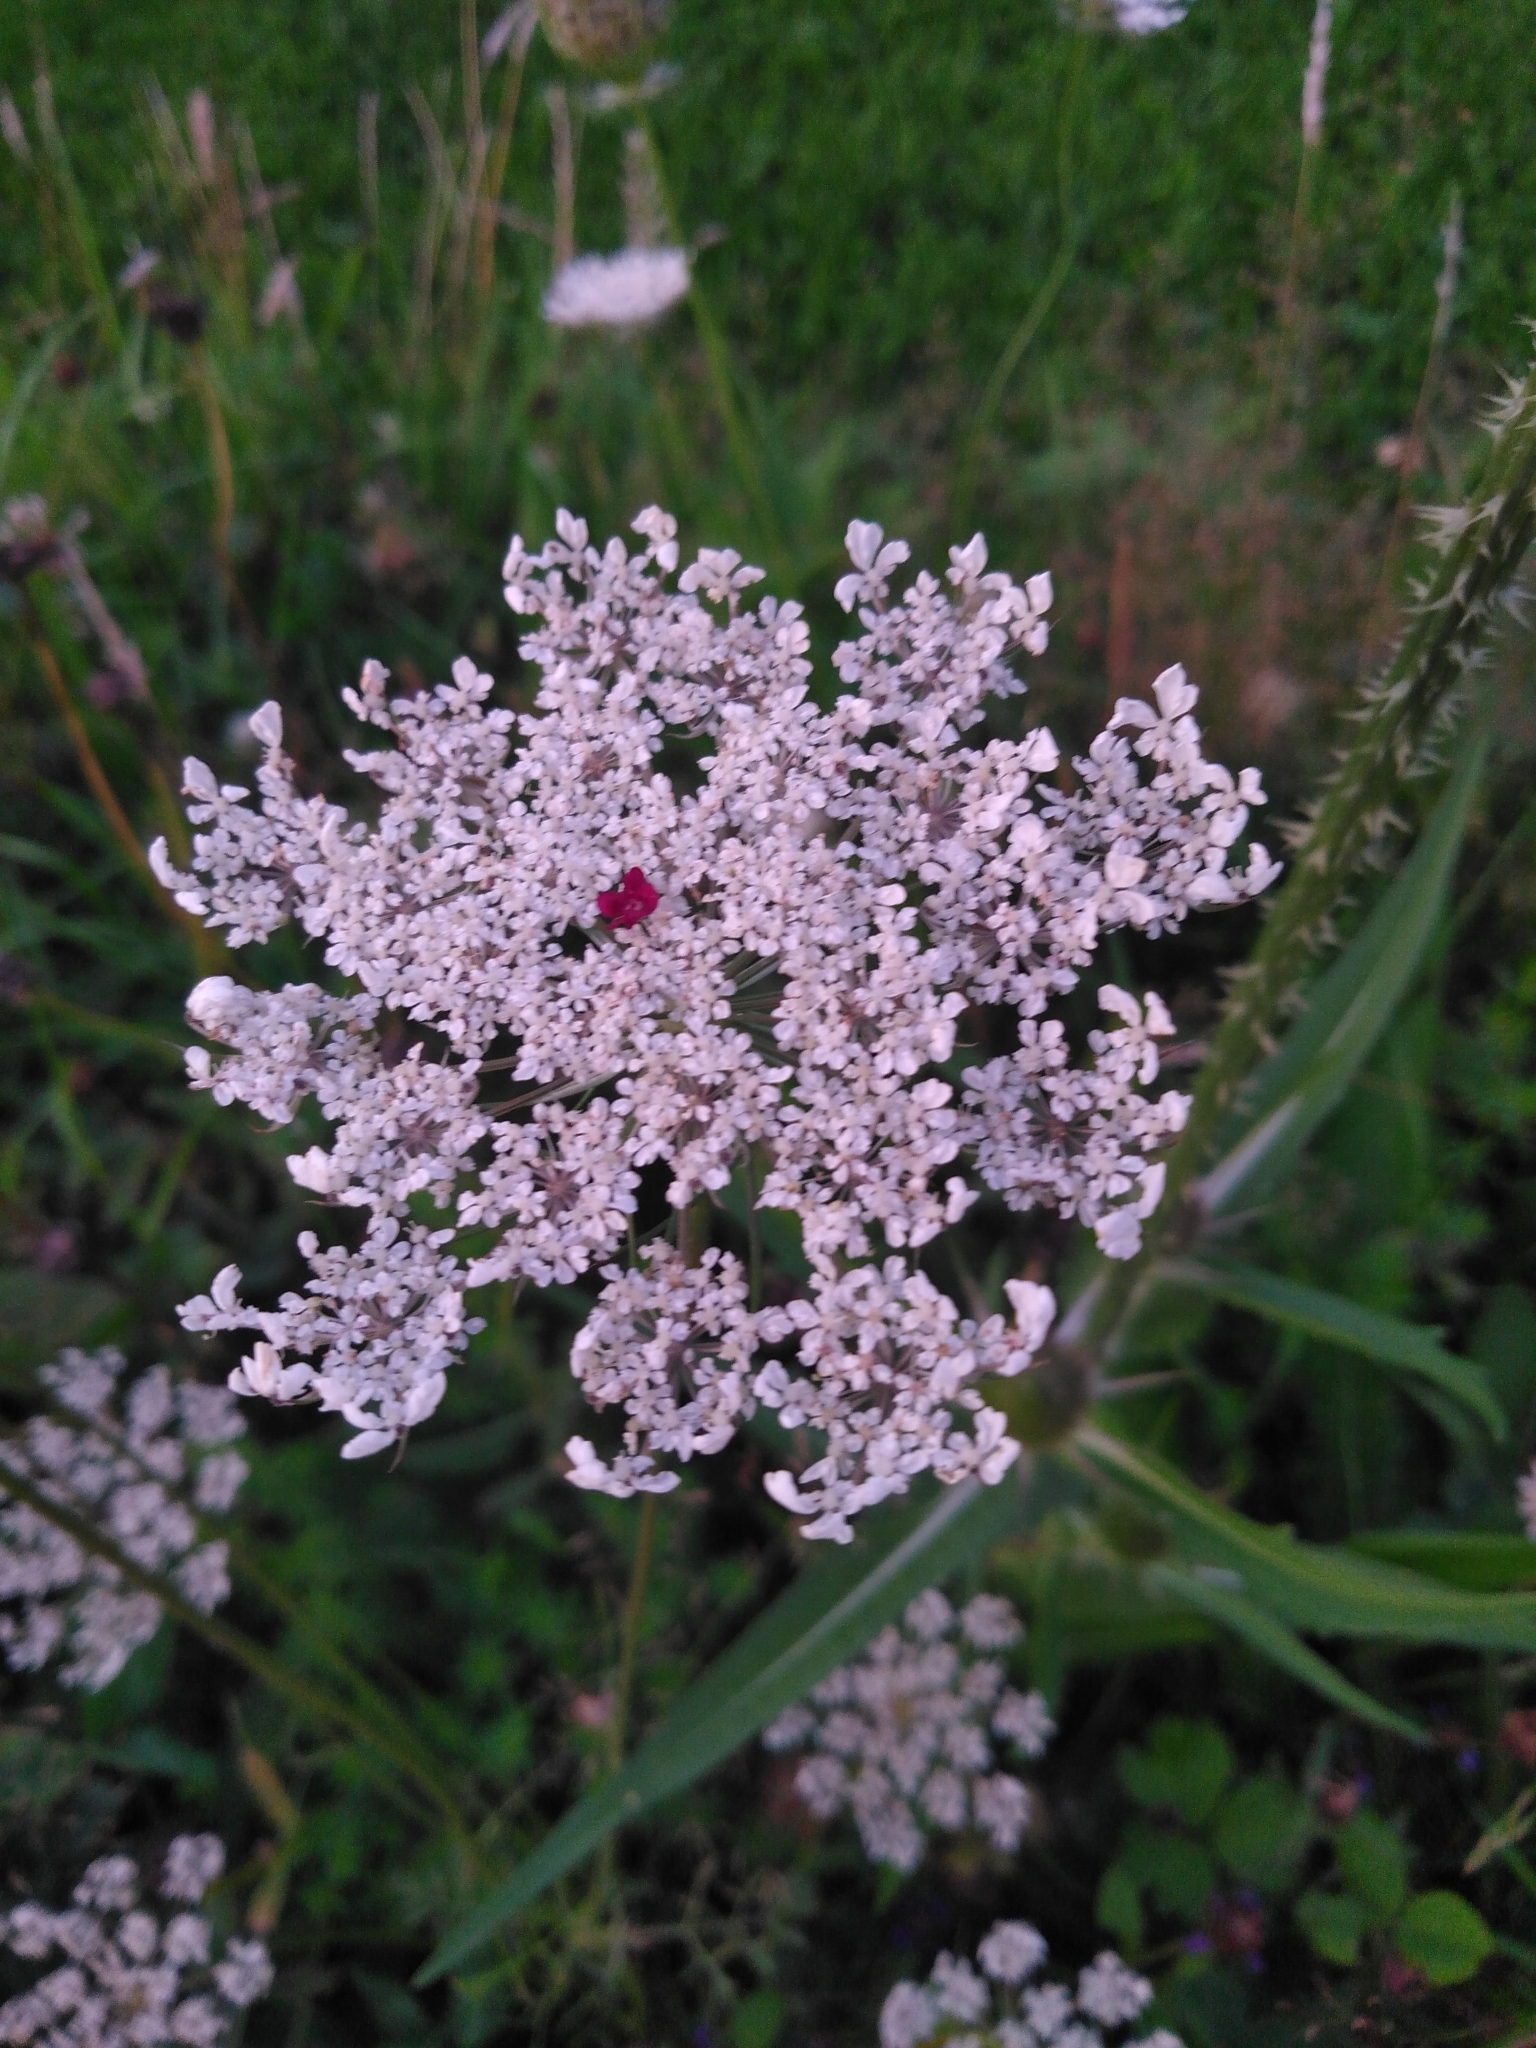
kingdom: Plantae
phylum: Tracheophyta
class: Magnoliopsida
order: Apiales
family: Apiaceae
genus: Daucus
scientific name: Daucus carota
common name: Wild carrot
